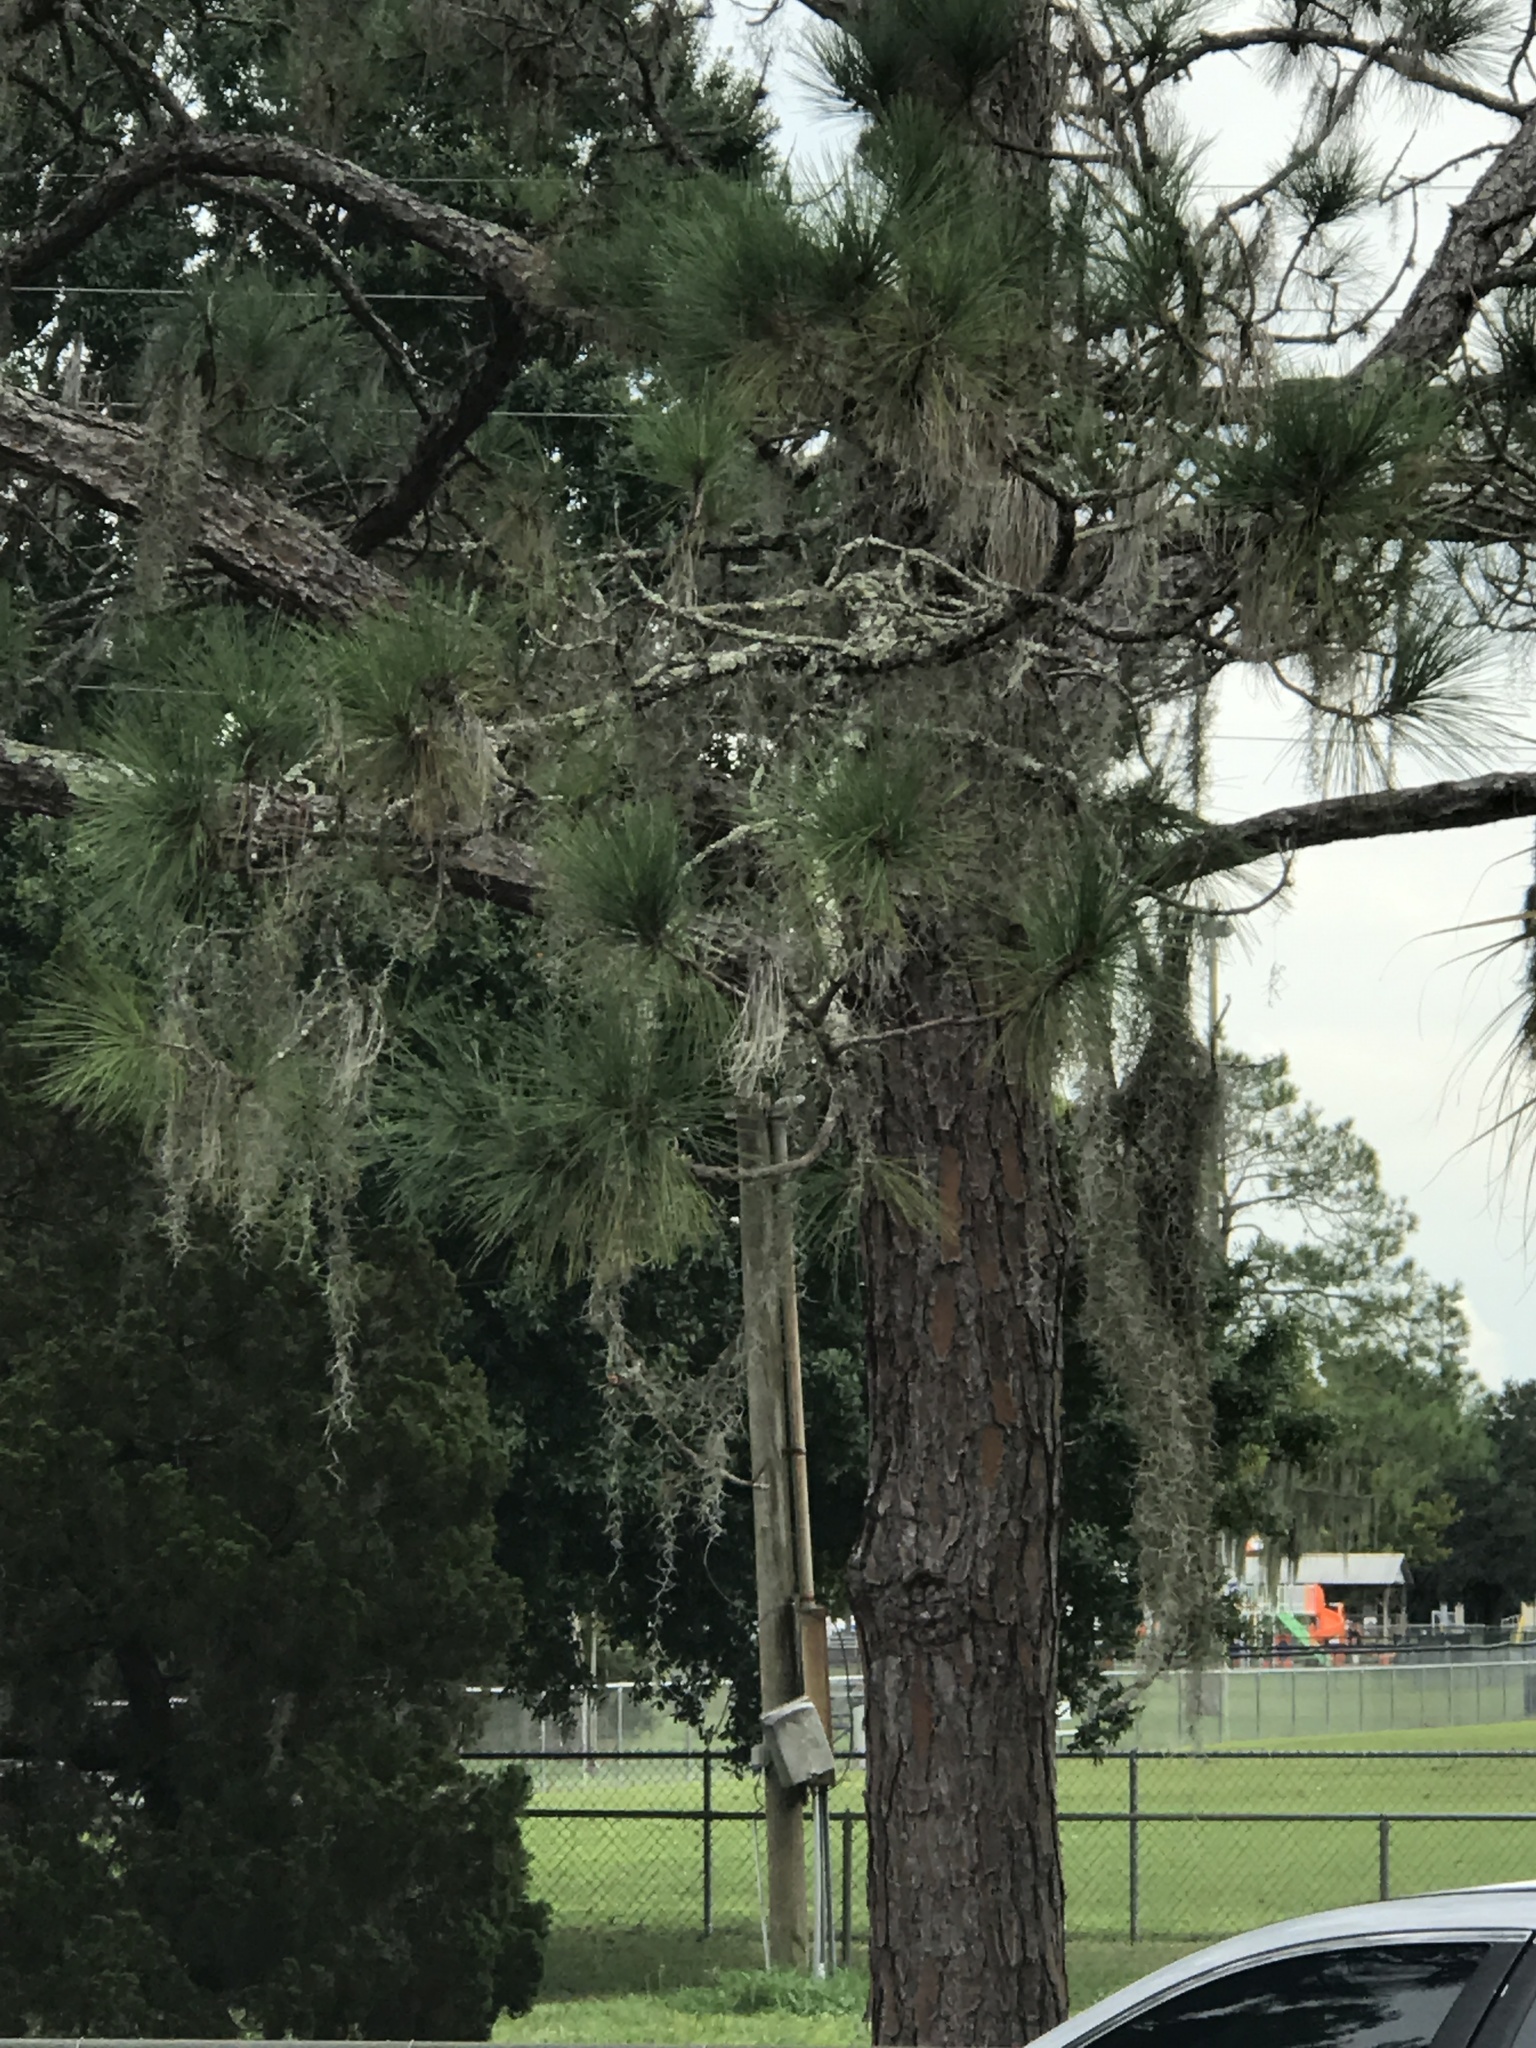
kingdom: Plantae
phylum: Tracheophyta
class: Liliopsida
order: Poales
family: Bromeliaceae
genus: Tillandsia
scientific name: Tillandsia usneoides
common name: Spanish moss
